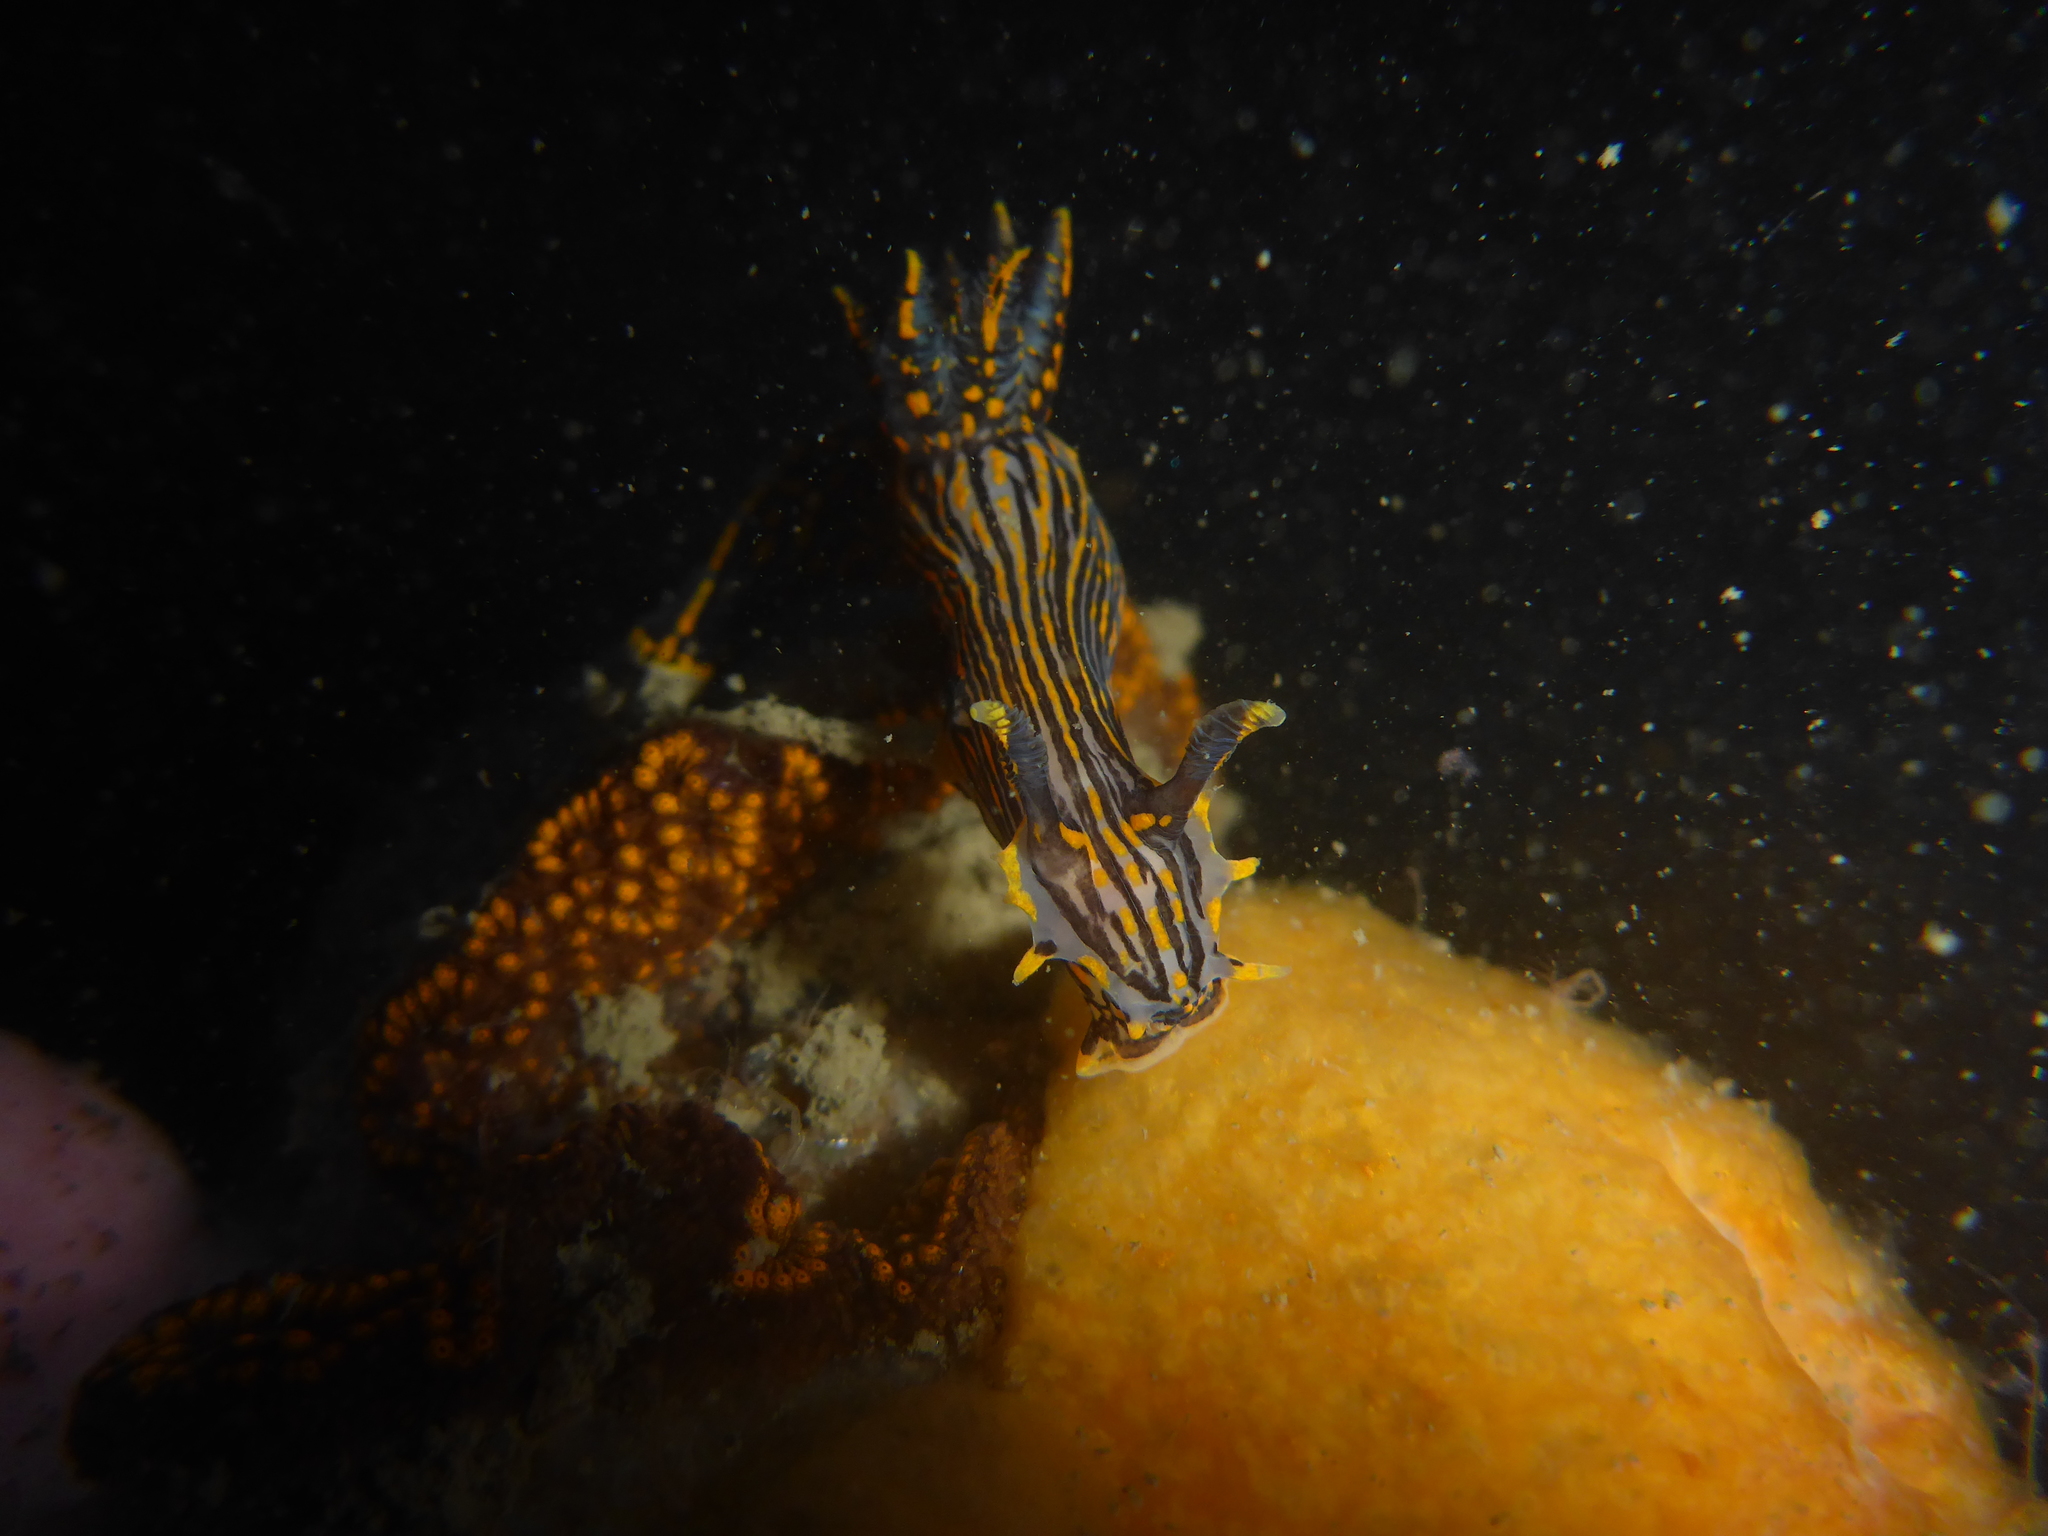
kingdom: Animalia
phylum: Mollusca
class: Gastropoda
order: Nudibranchia
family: Polyceridae
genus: Polycera
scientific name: Polycera atra
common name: Orange-spike polycera
